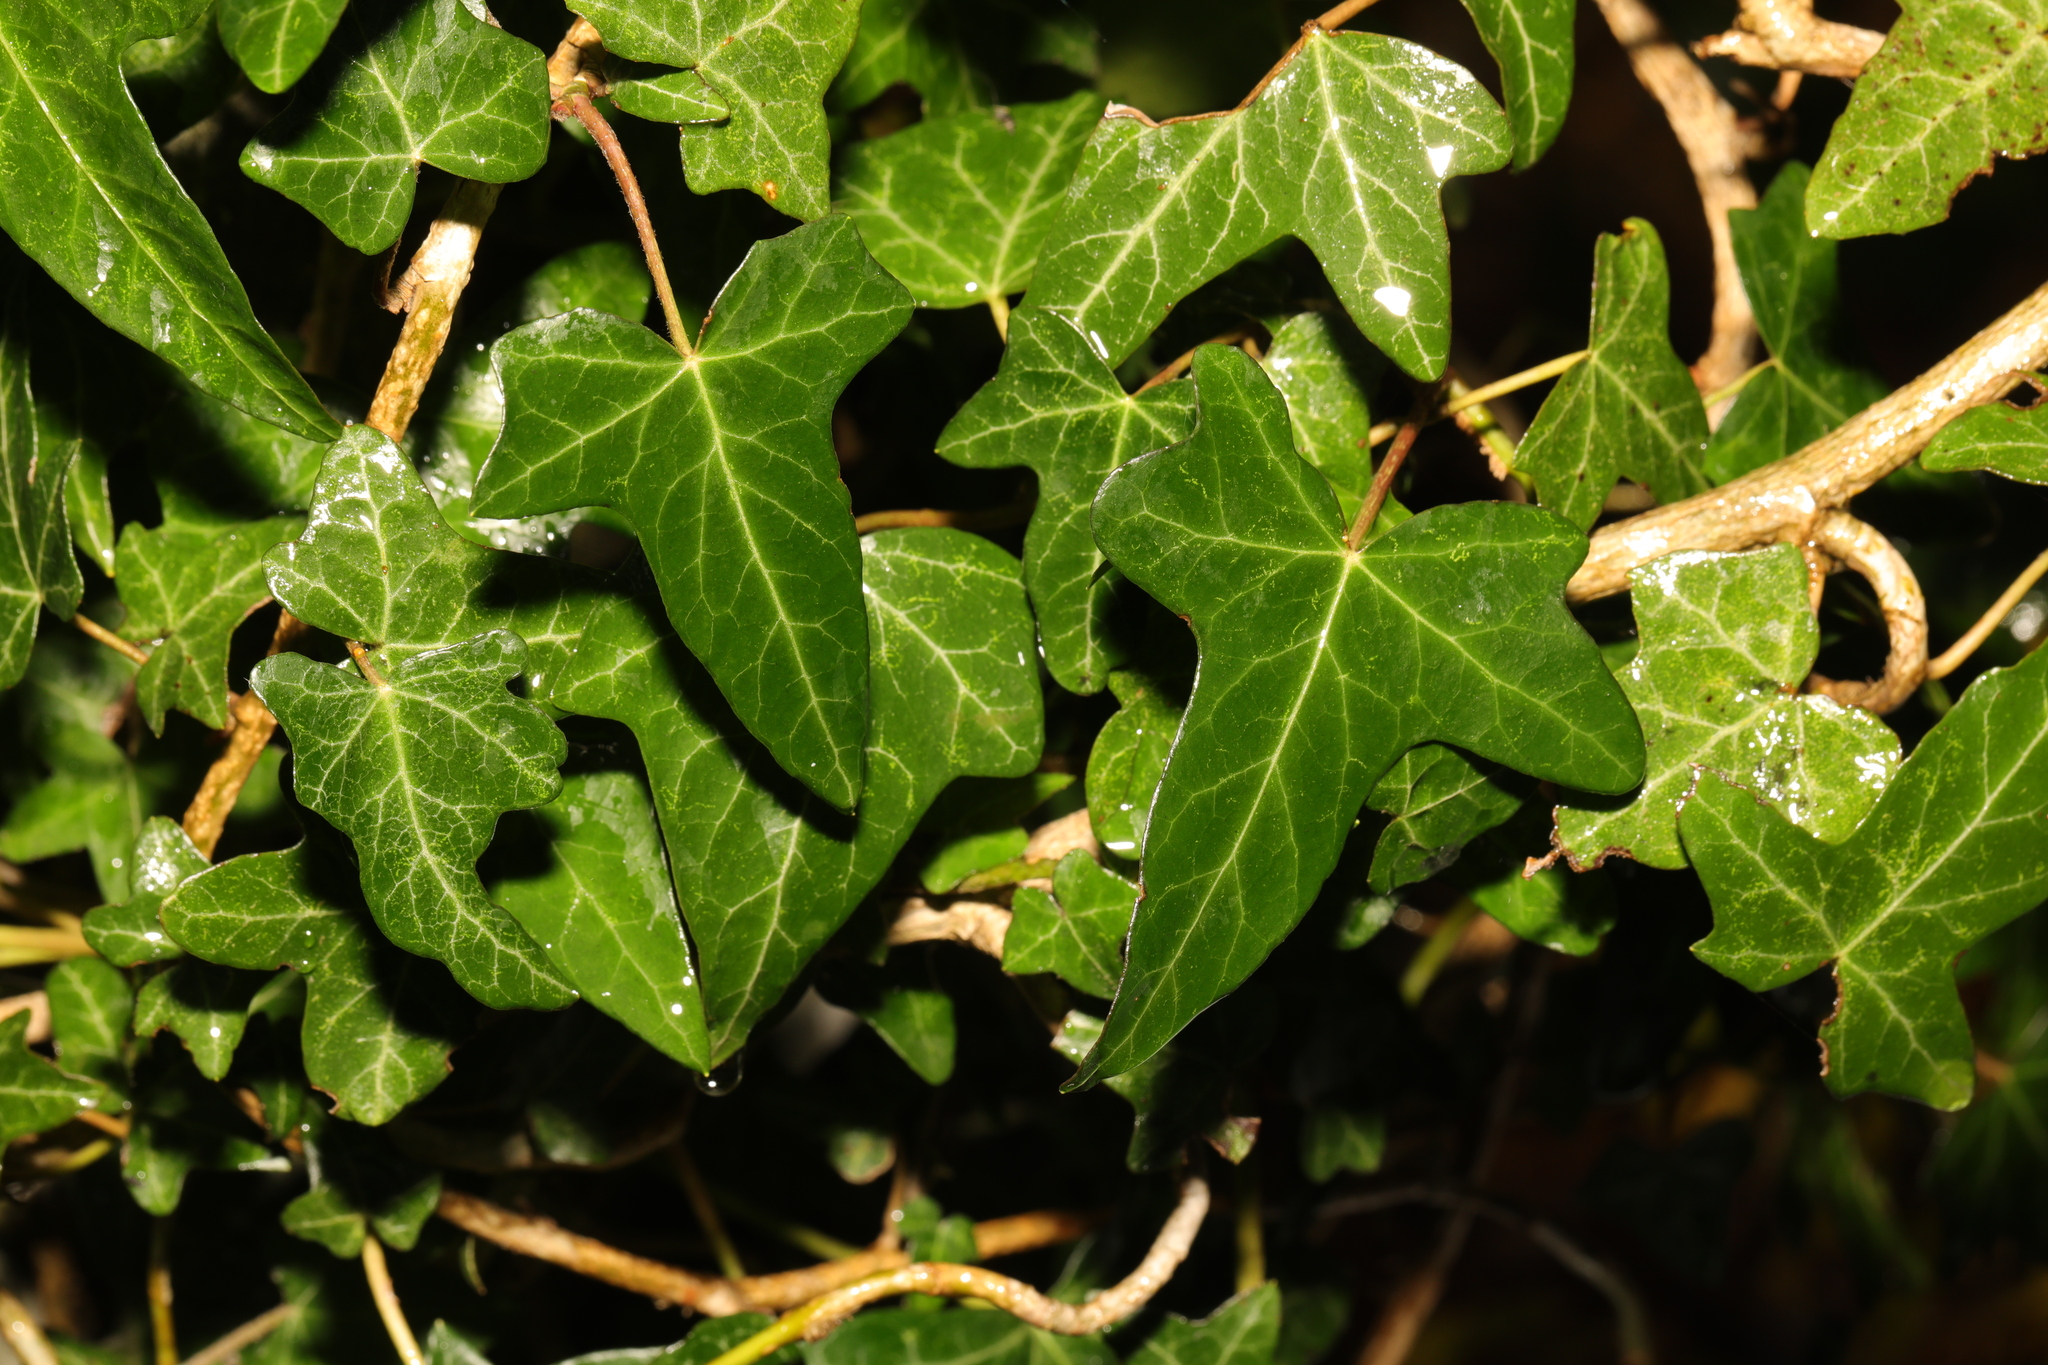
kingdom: Plantae
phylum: Tracheophyta
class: Magnoliopsida
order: Apiales
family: Araliaceae
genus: Hedera
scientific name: Hedera helix
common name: Ivy
